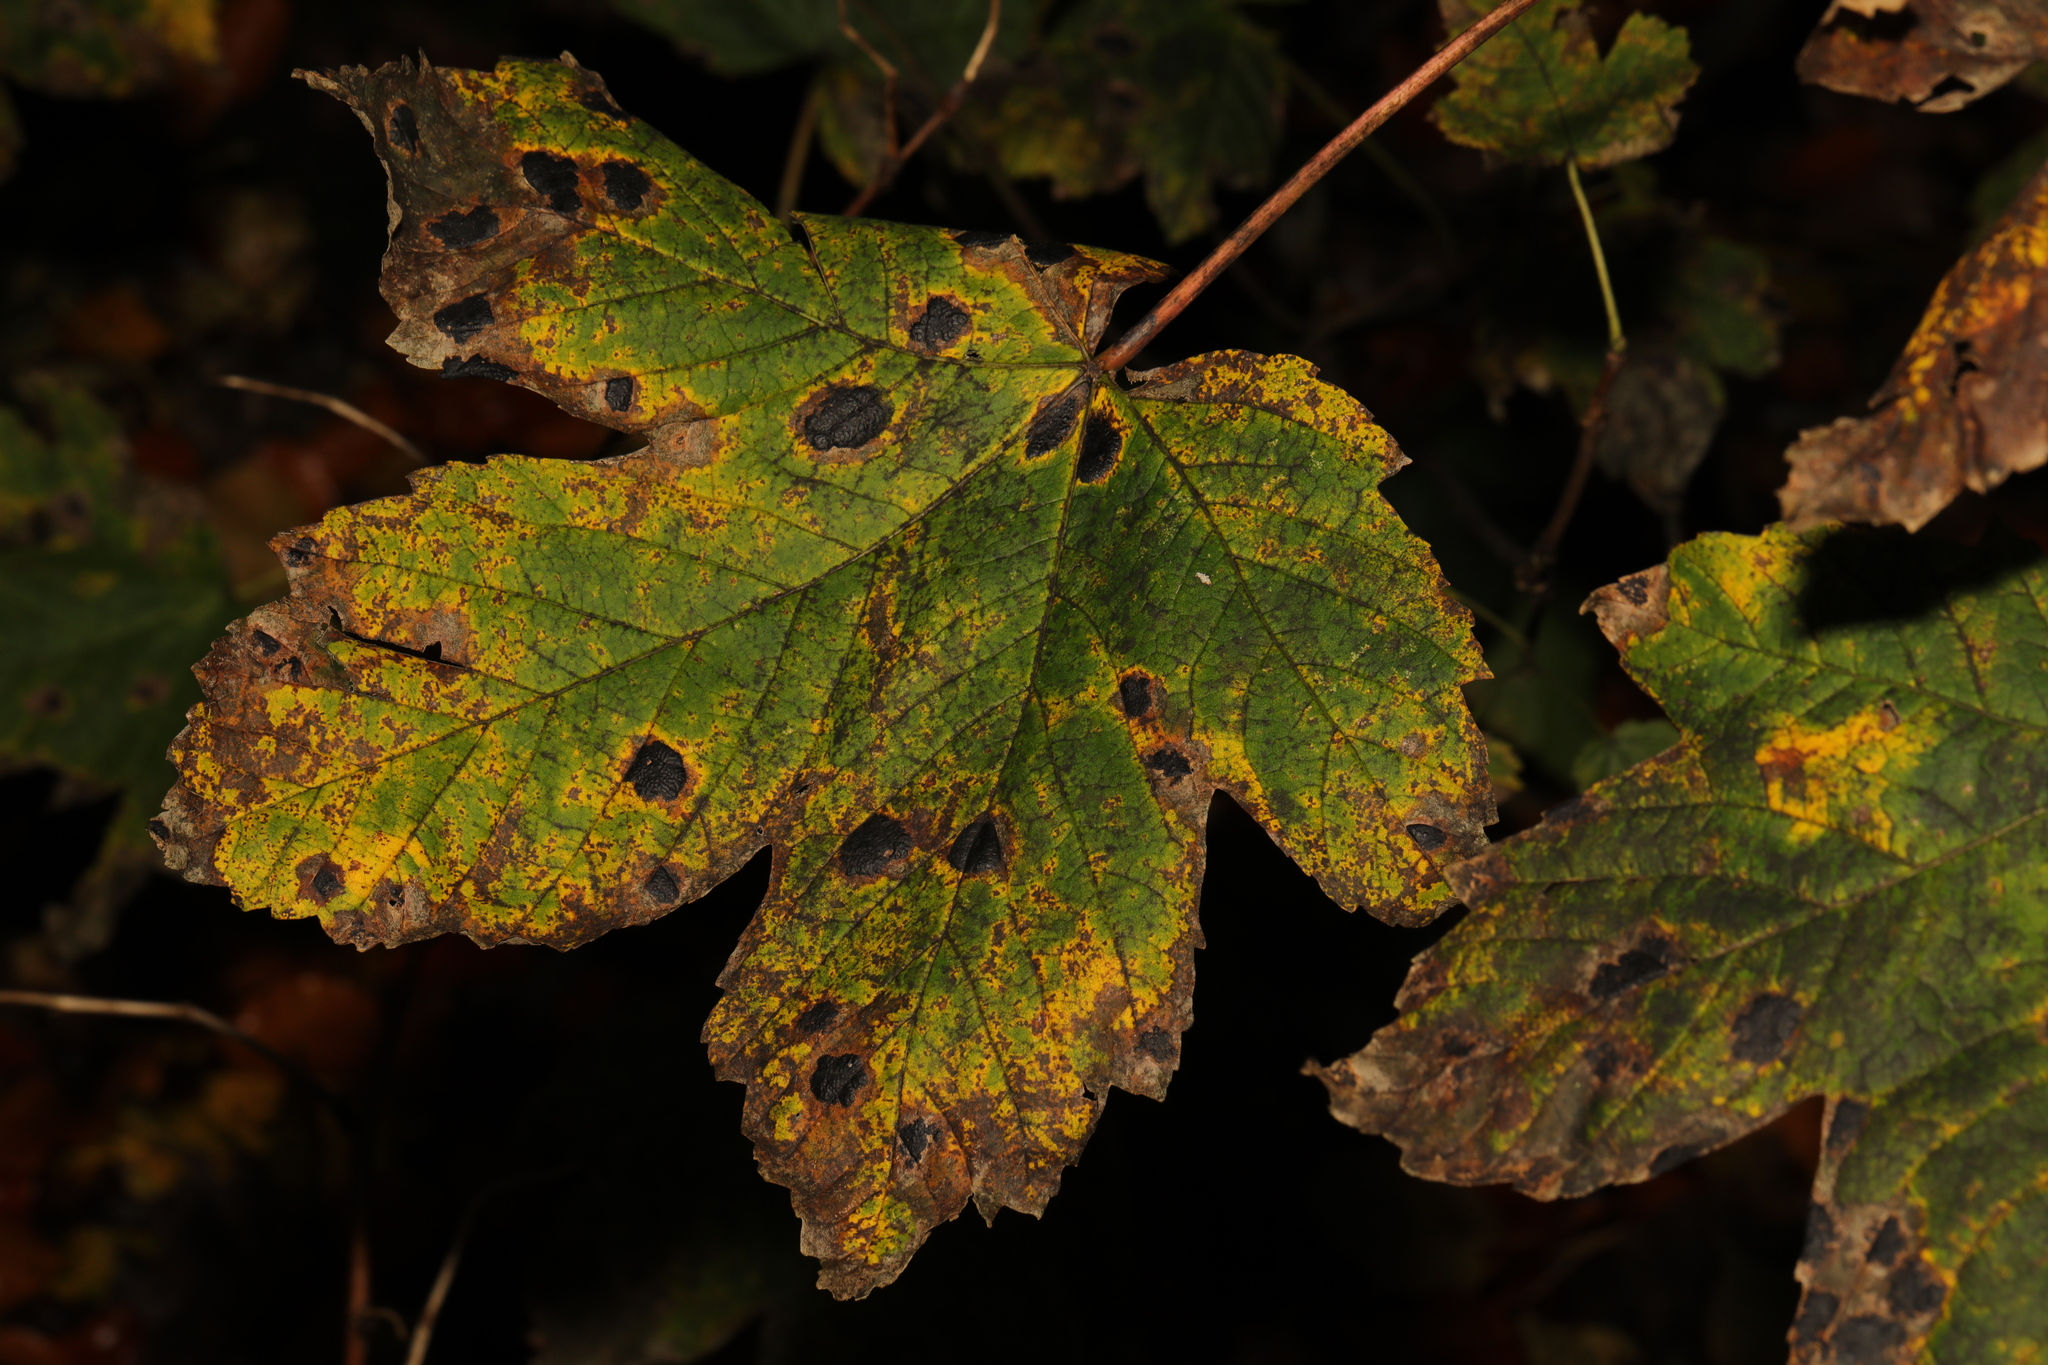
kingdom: Plantae
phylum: Tracheophyta
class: Magnoliopsida
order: Sapindales
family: Sapindaceae
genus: Acer
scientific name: Acer pseudoplatanus
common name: Sycamore
